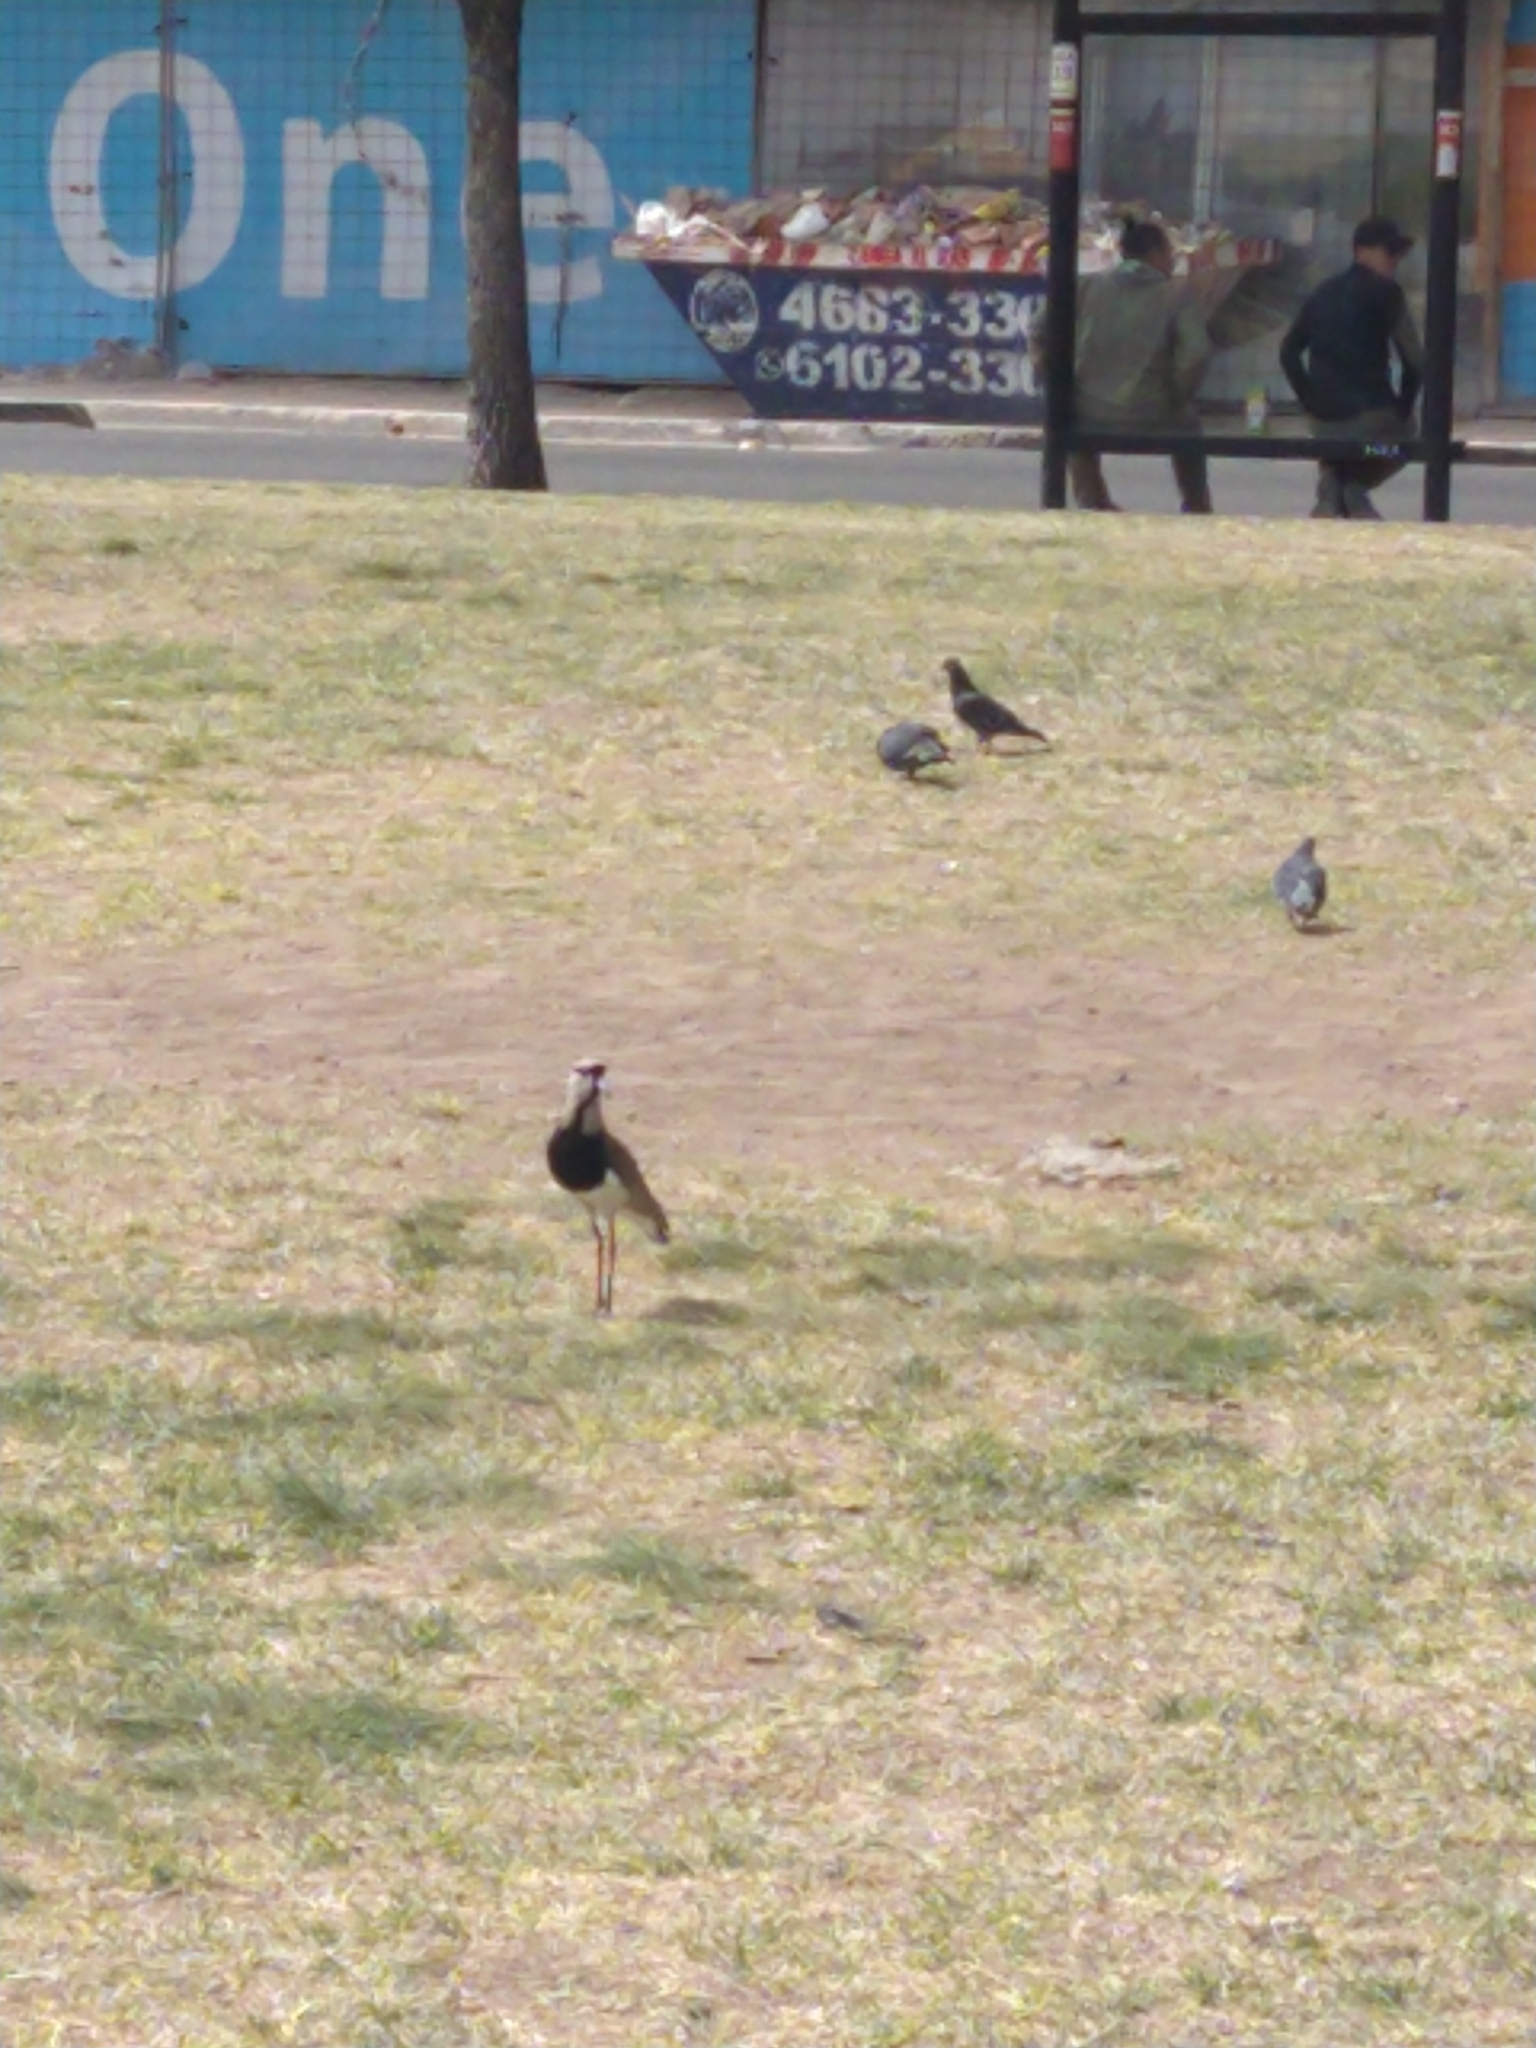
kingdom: Animalia
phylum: Chordata
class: Aves
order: Charadriiformes
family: Charadriidae
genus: Vanellus
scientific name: Vanellus chilensis
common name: Southern lapwing
